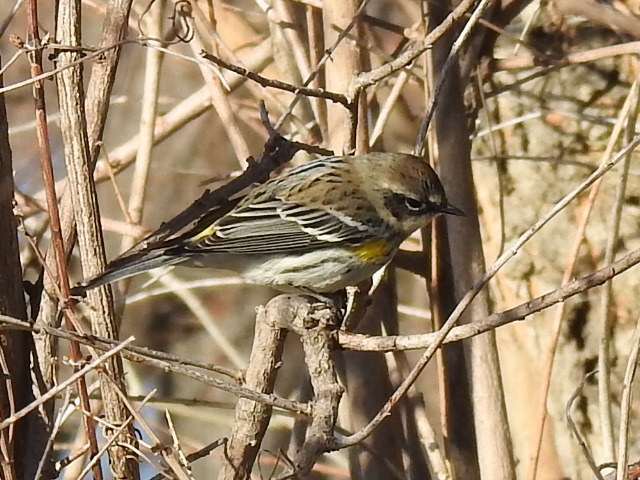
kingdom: Animalia
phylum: Chordata
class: Aves
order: Passeriformes
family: Parulidae
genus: Setophaga
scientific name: Setophaga coronata
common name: Myrtle warbler
